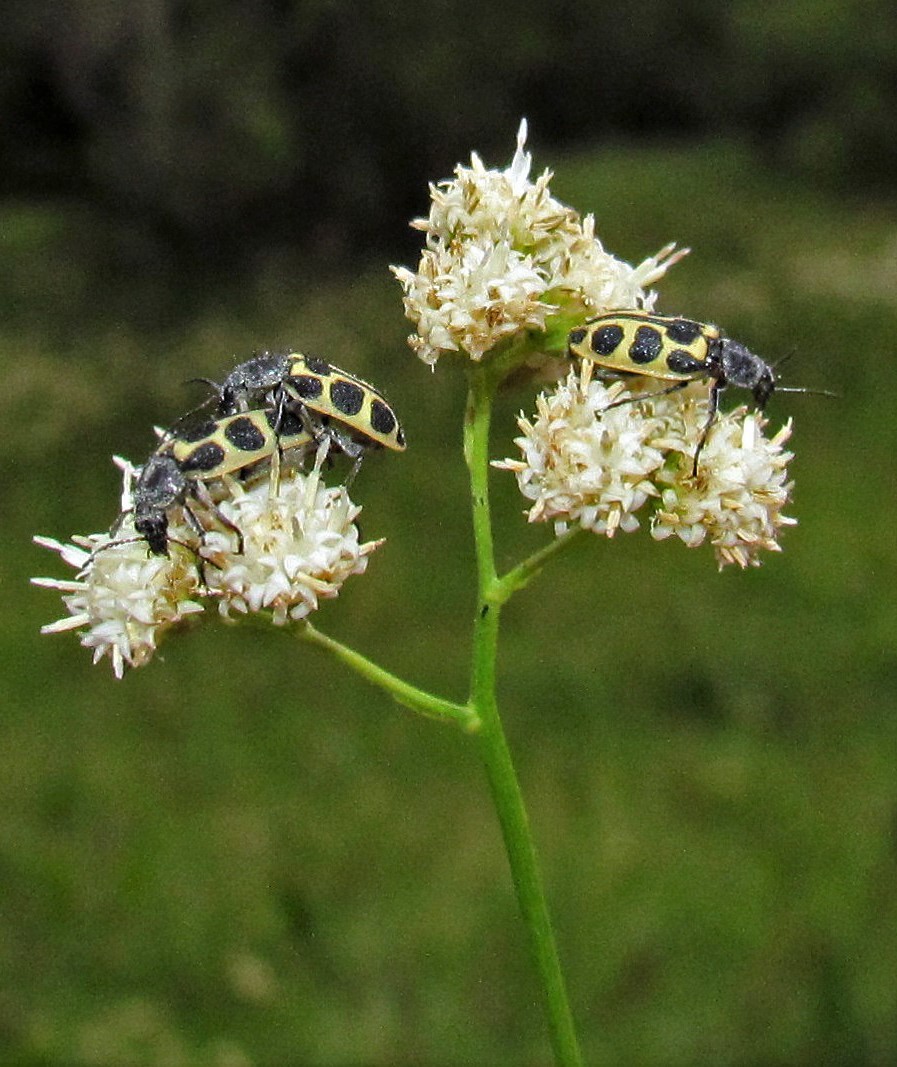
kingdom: Animalia
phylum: Arthropoda
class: Insecta
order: Coleoptera
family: Melyridae
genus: Astylus
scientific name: Astylus atromaculatus
